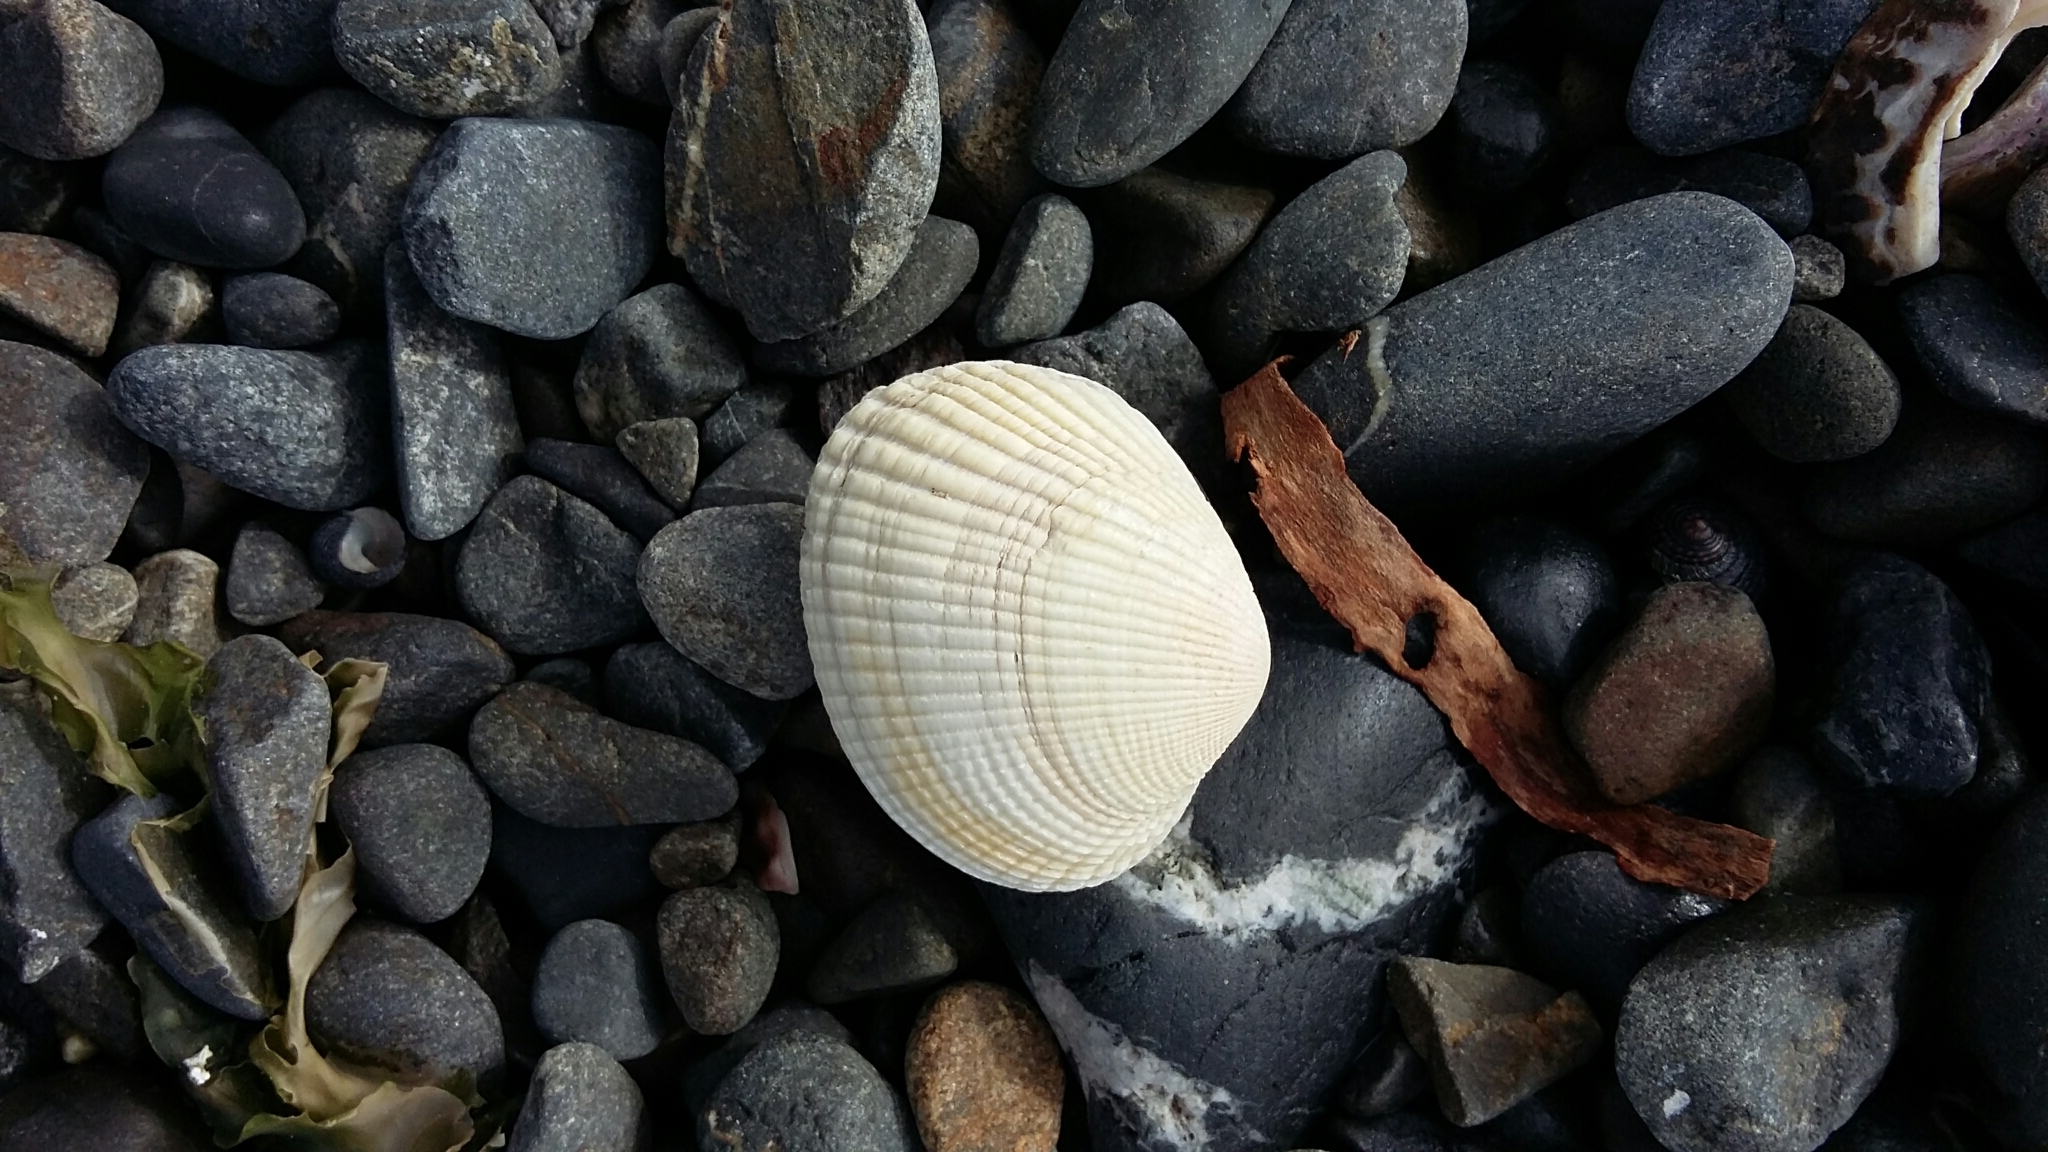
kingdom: Animalia
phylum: Mollusca
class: Bivalvia
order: Venerida
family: Veneridae
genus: Leukoma
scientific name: Leukoma crassicosta
